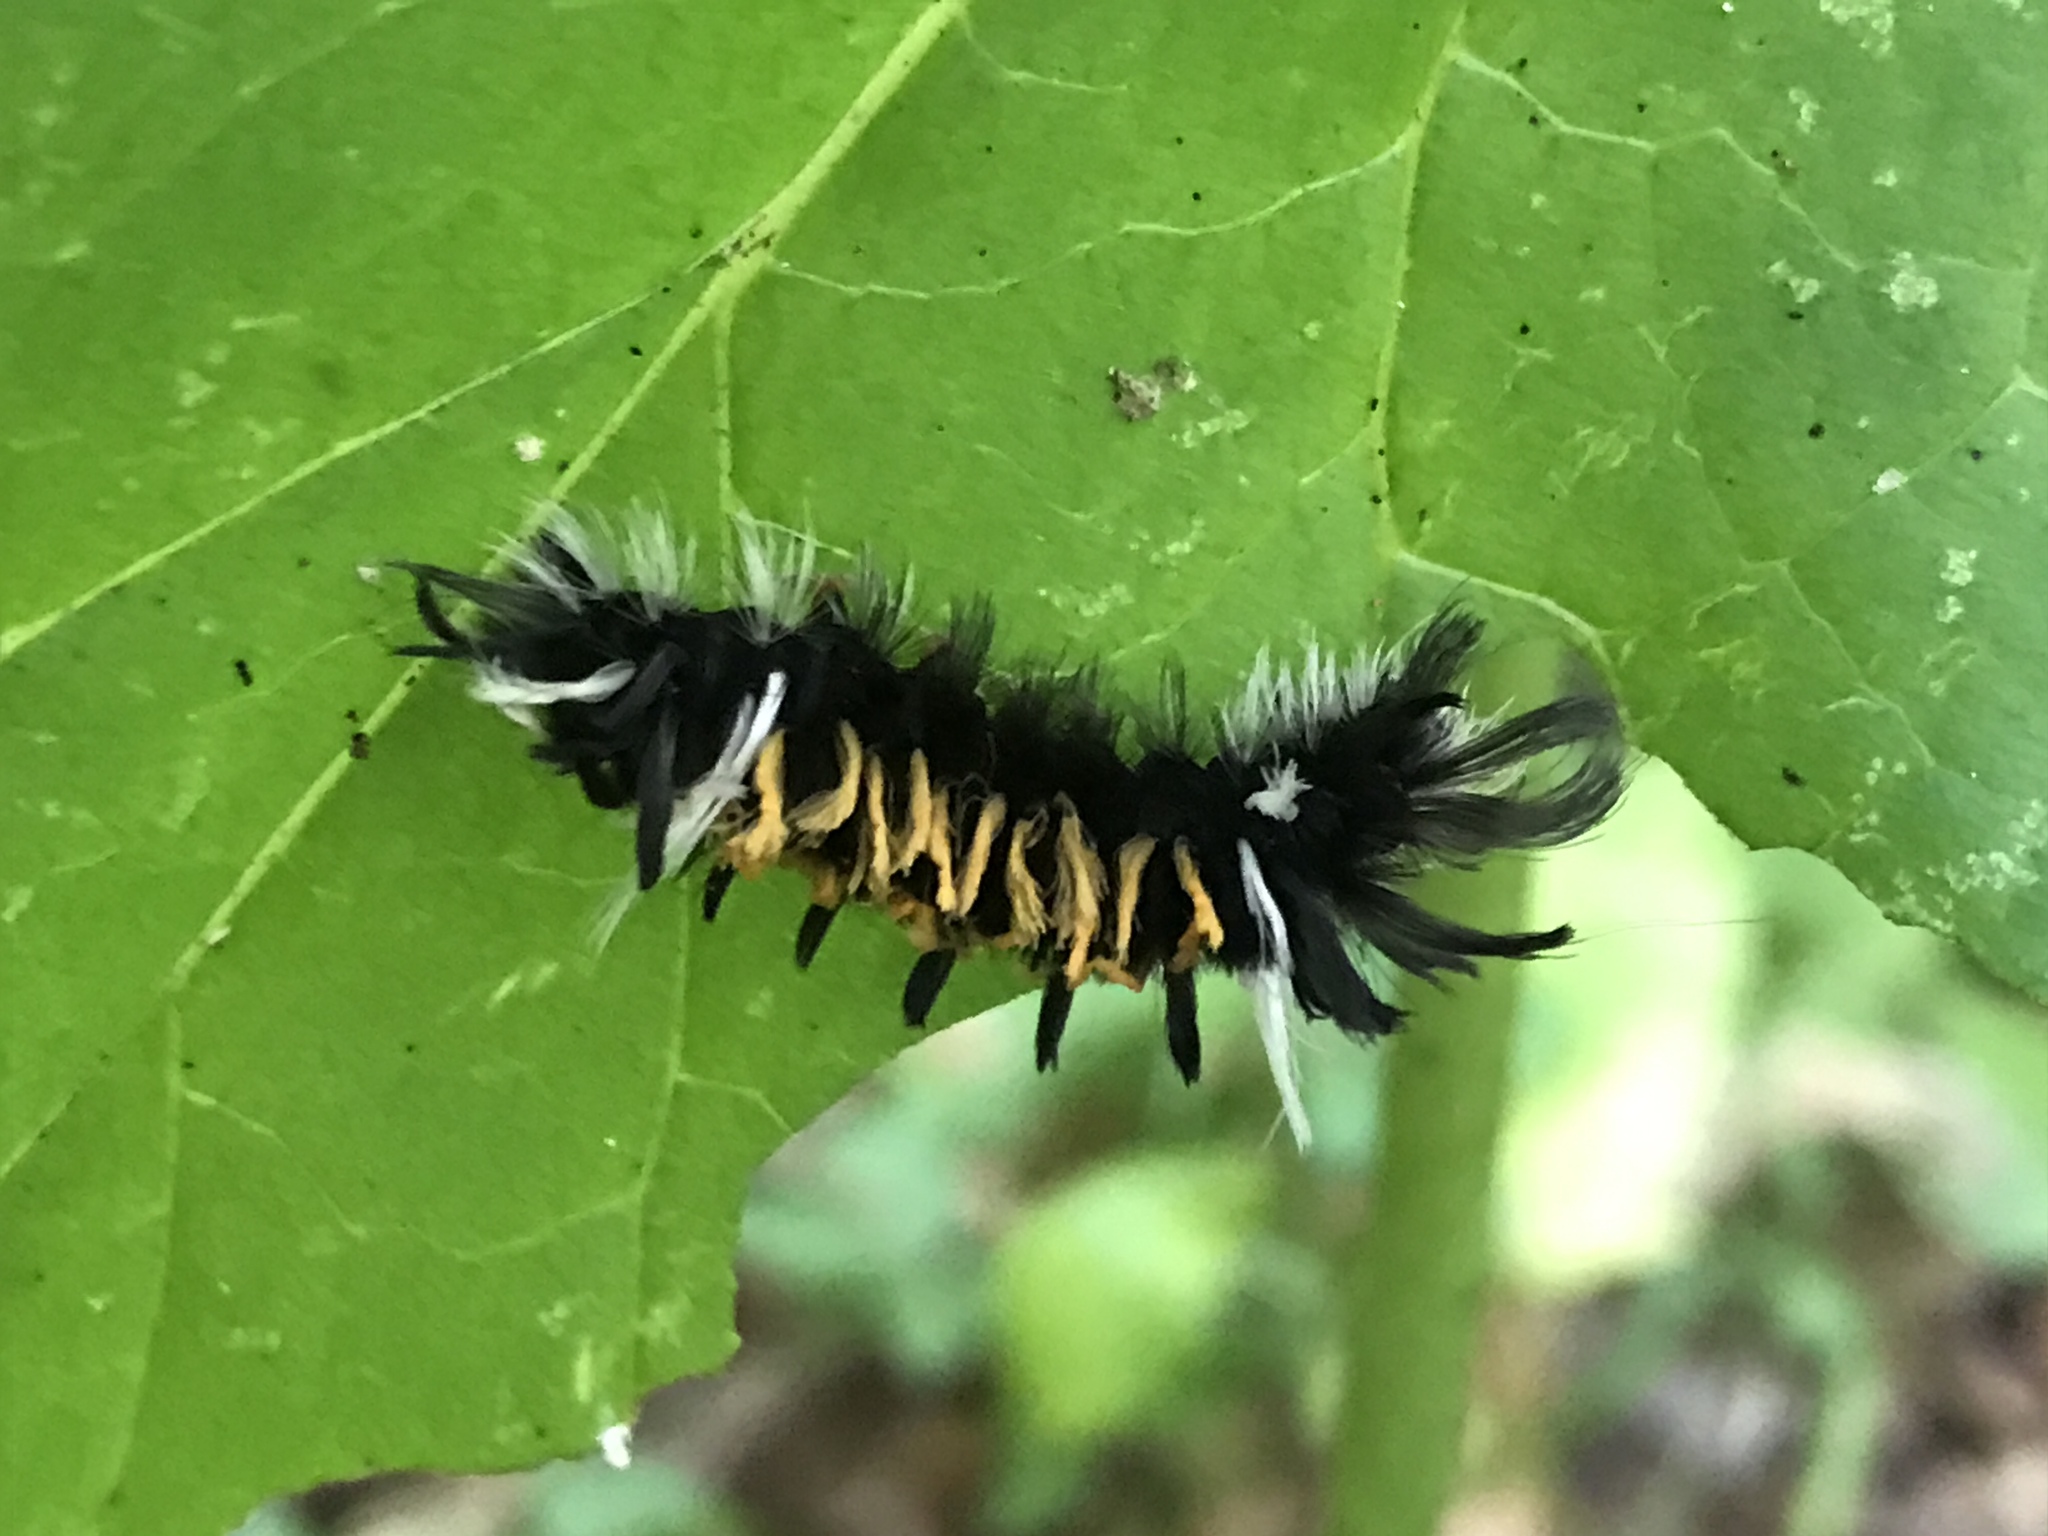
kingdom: Animalia
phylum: Arthropoda
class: Insecta
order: Lepidoptera
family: Erebidae
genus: Euchaetes
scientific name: Euchaetes egle
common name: Milkweed tussock moth
